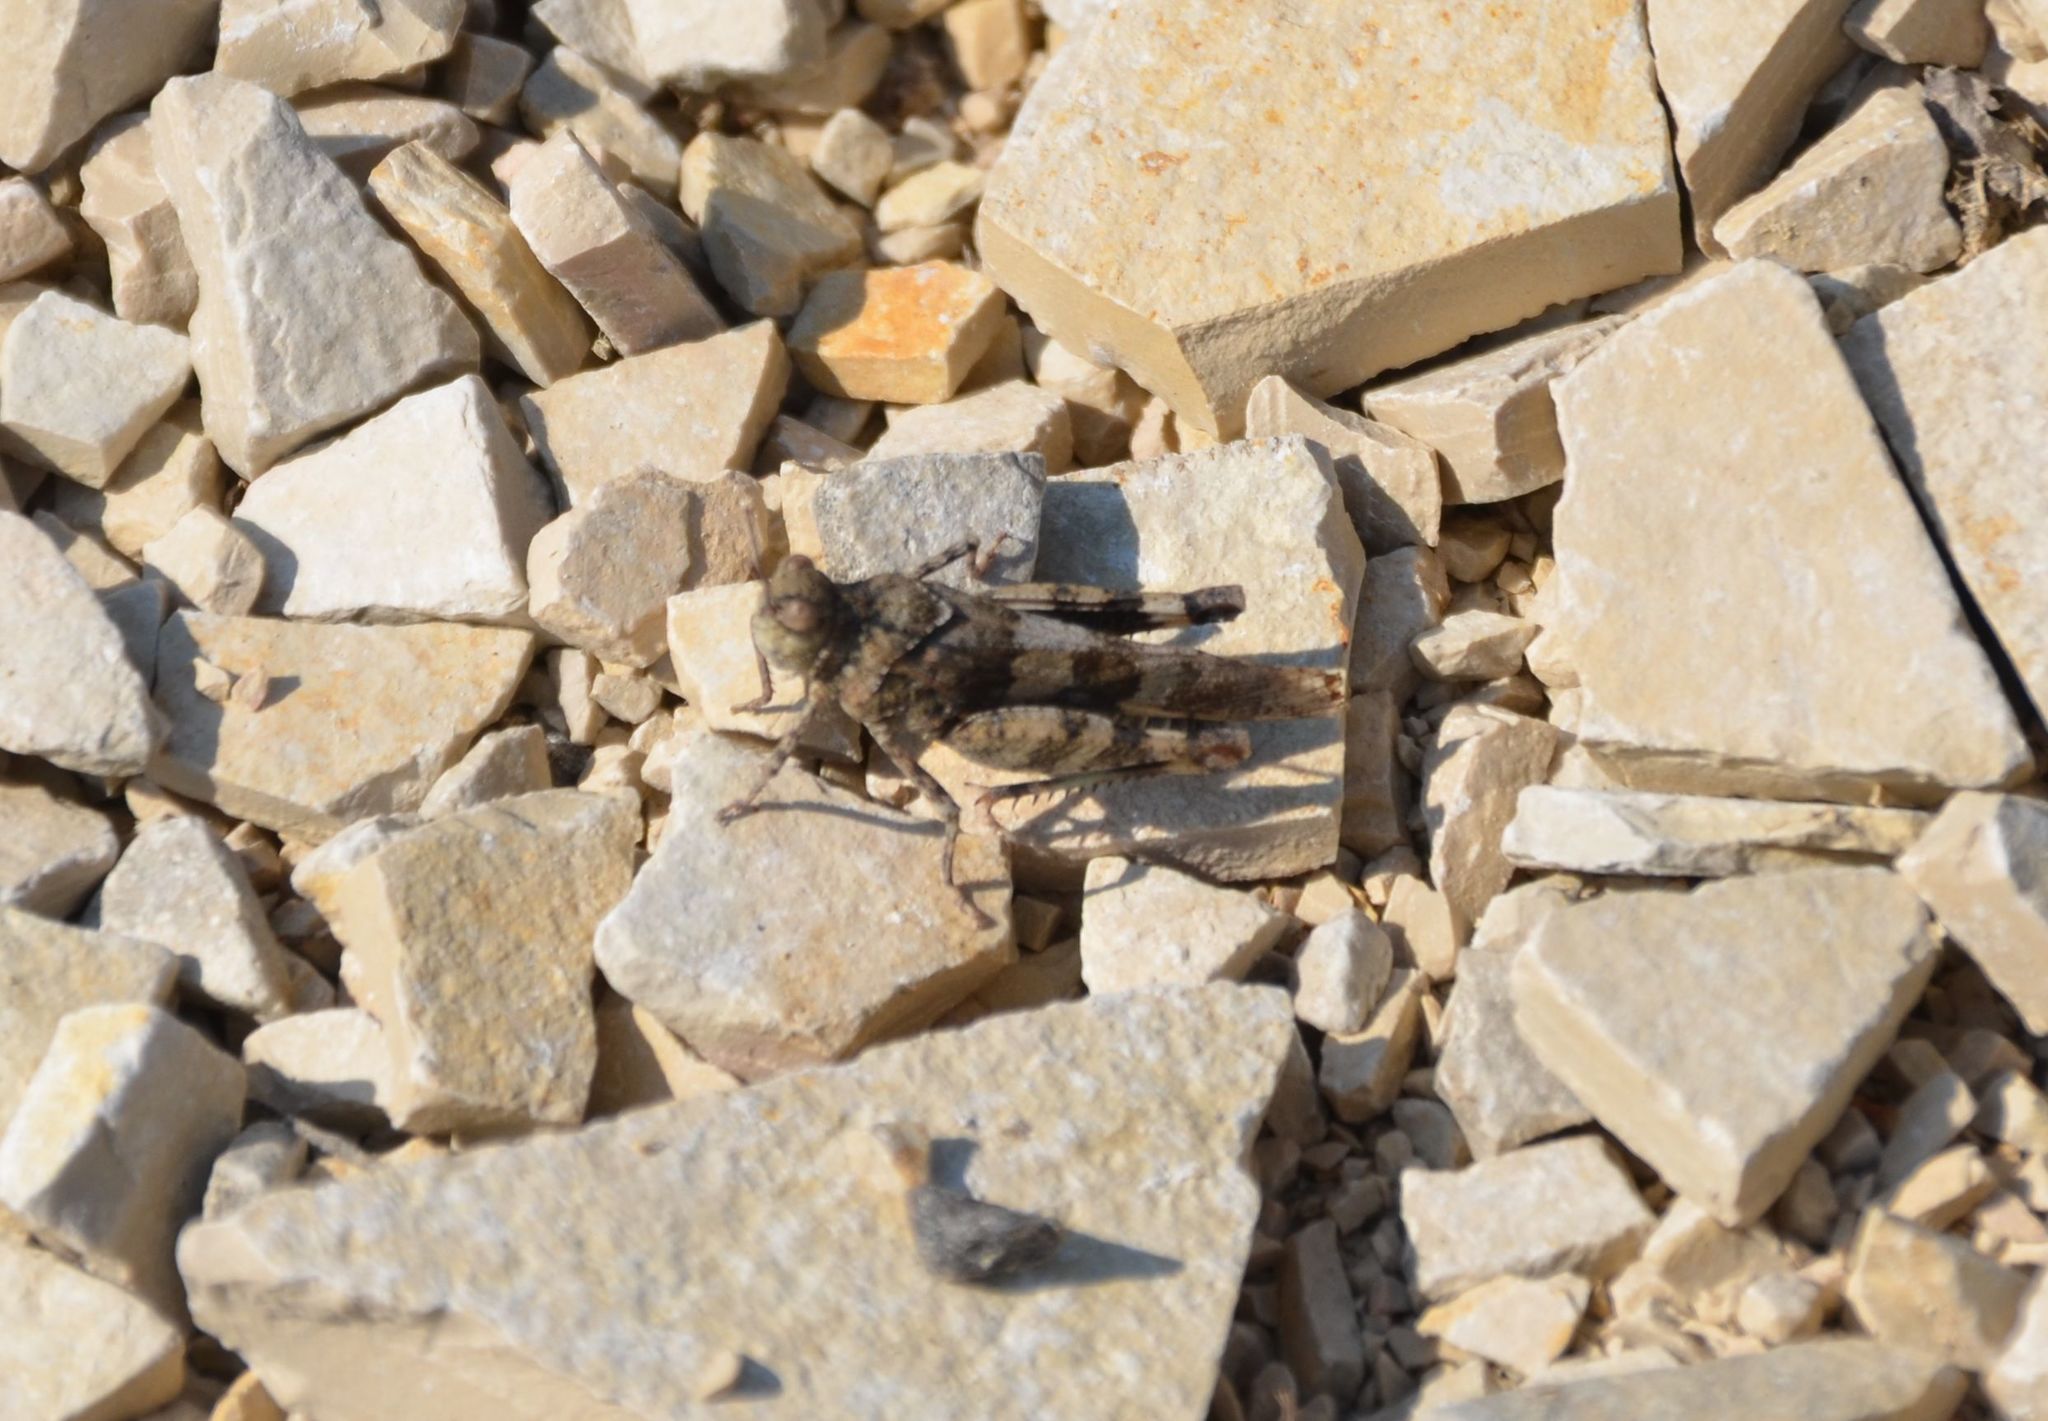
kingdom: Animalia
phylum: Arthropoda
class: Insecta
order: Orthoptera
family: Acrididae
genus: Oedipoda
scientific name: Oedipoda caerulescens
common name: Blue-winged grasshopper
